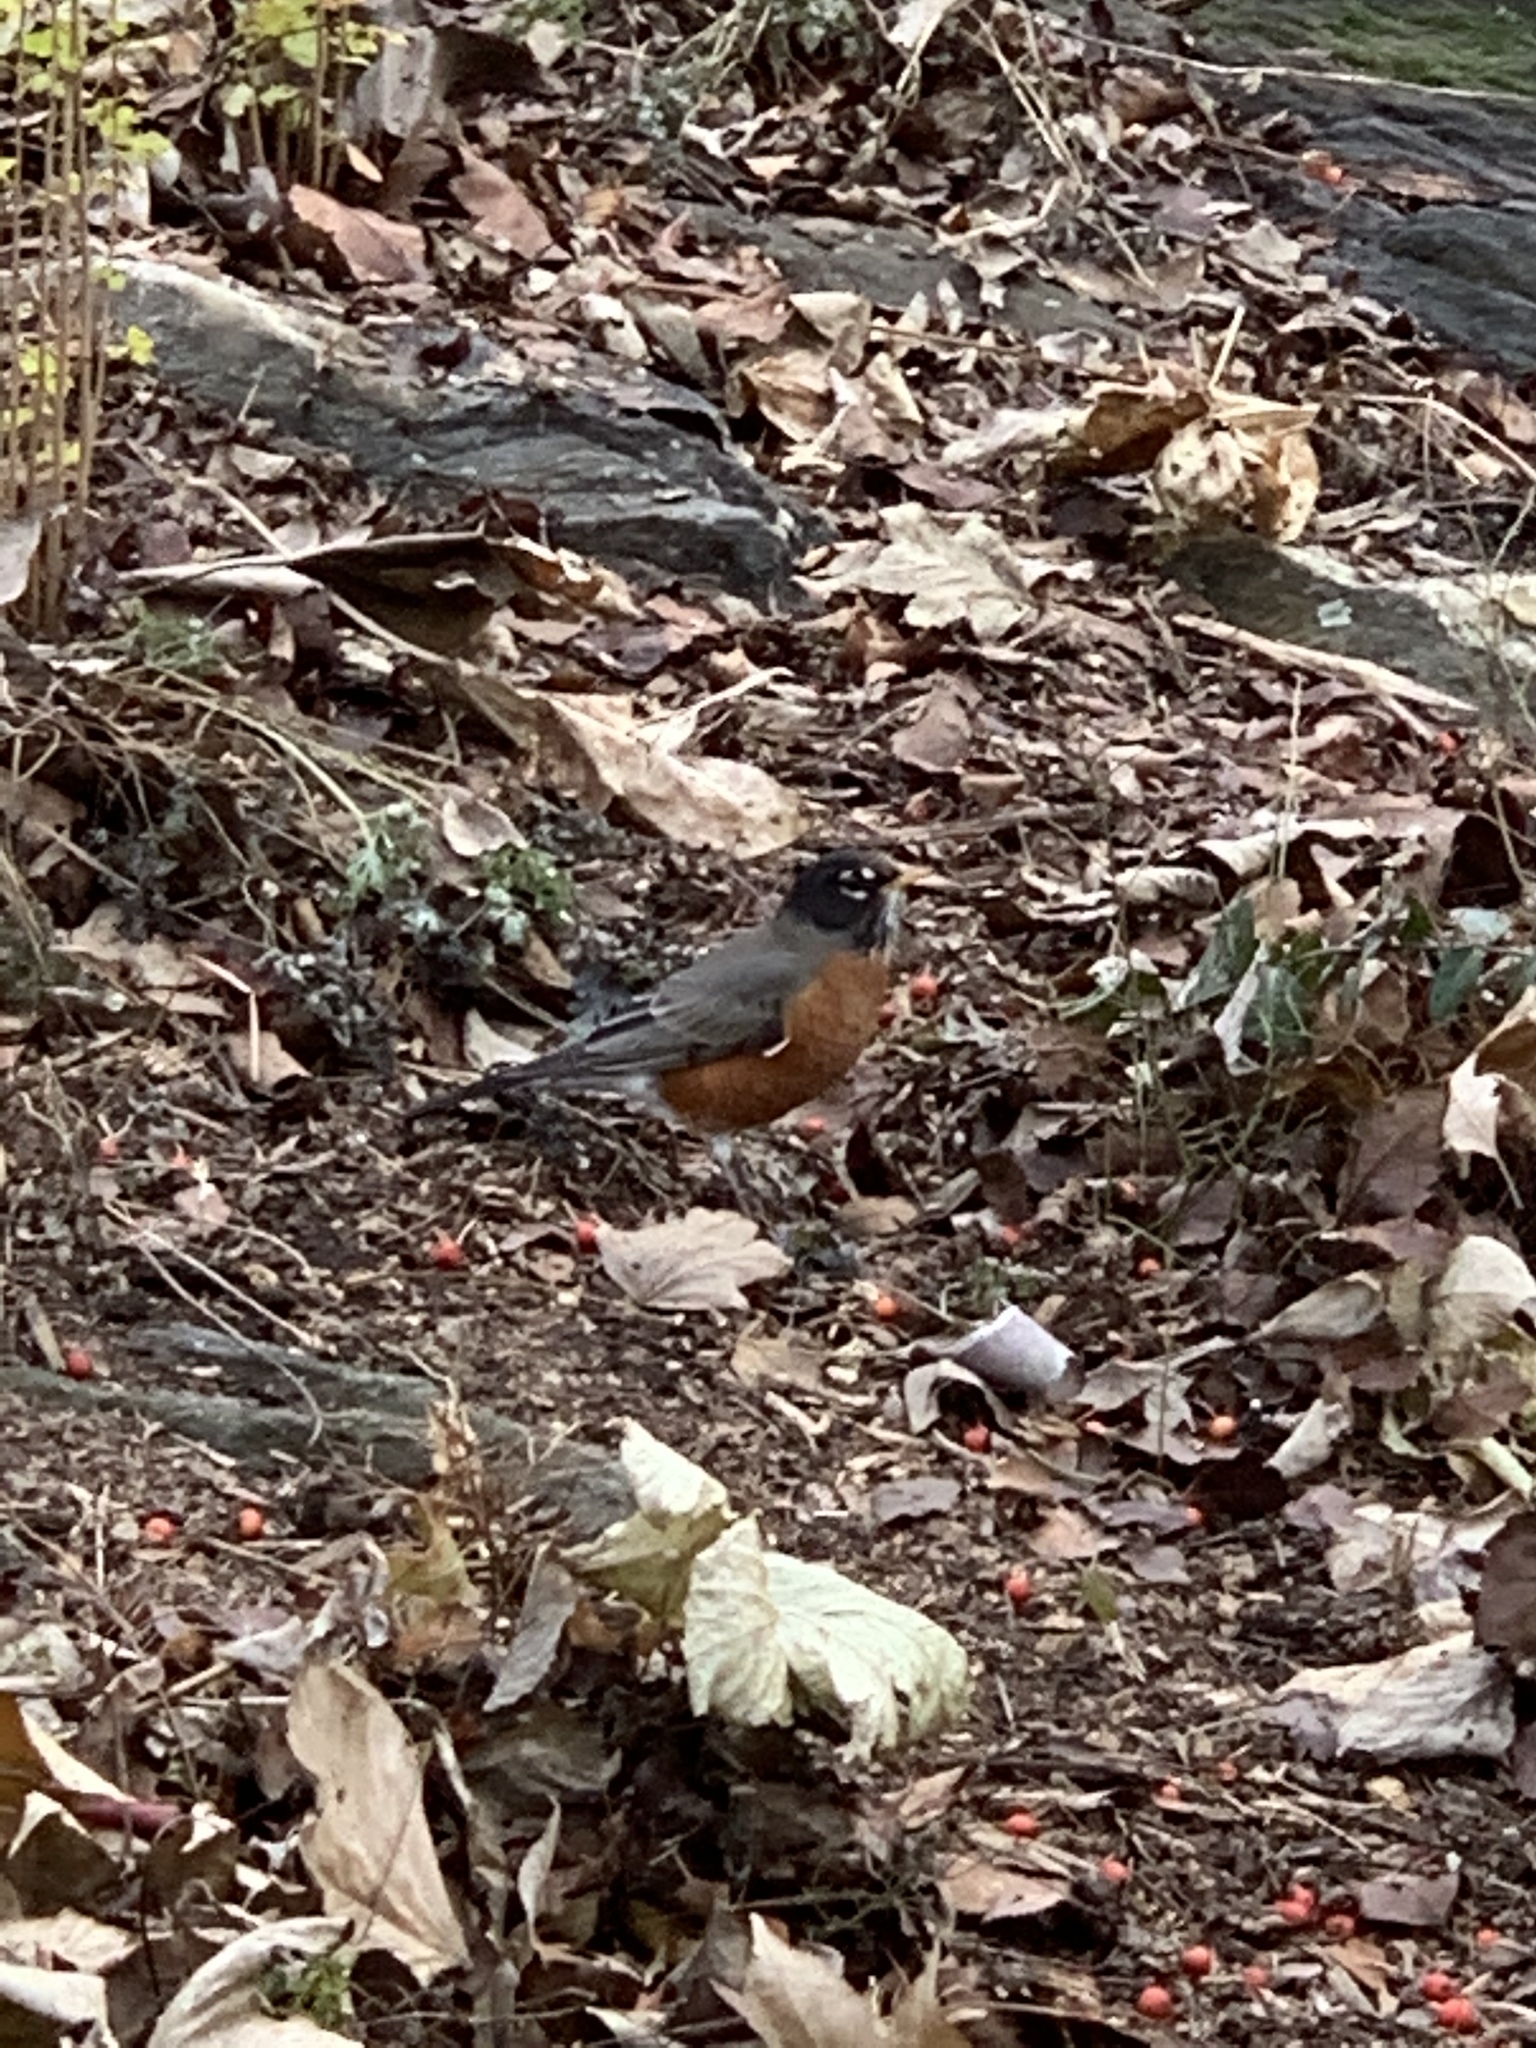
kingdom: Animalia
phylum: Chordata
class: Aves
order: Passeriformes
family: Turdidae
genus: Turdus
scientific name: Turdus migratorius
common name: American robin
